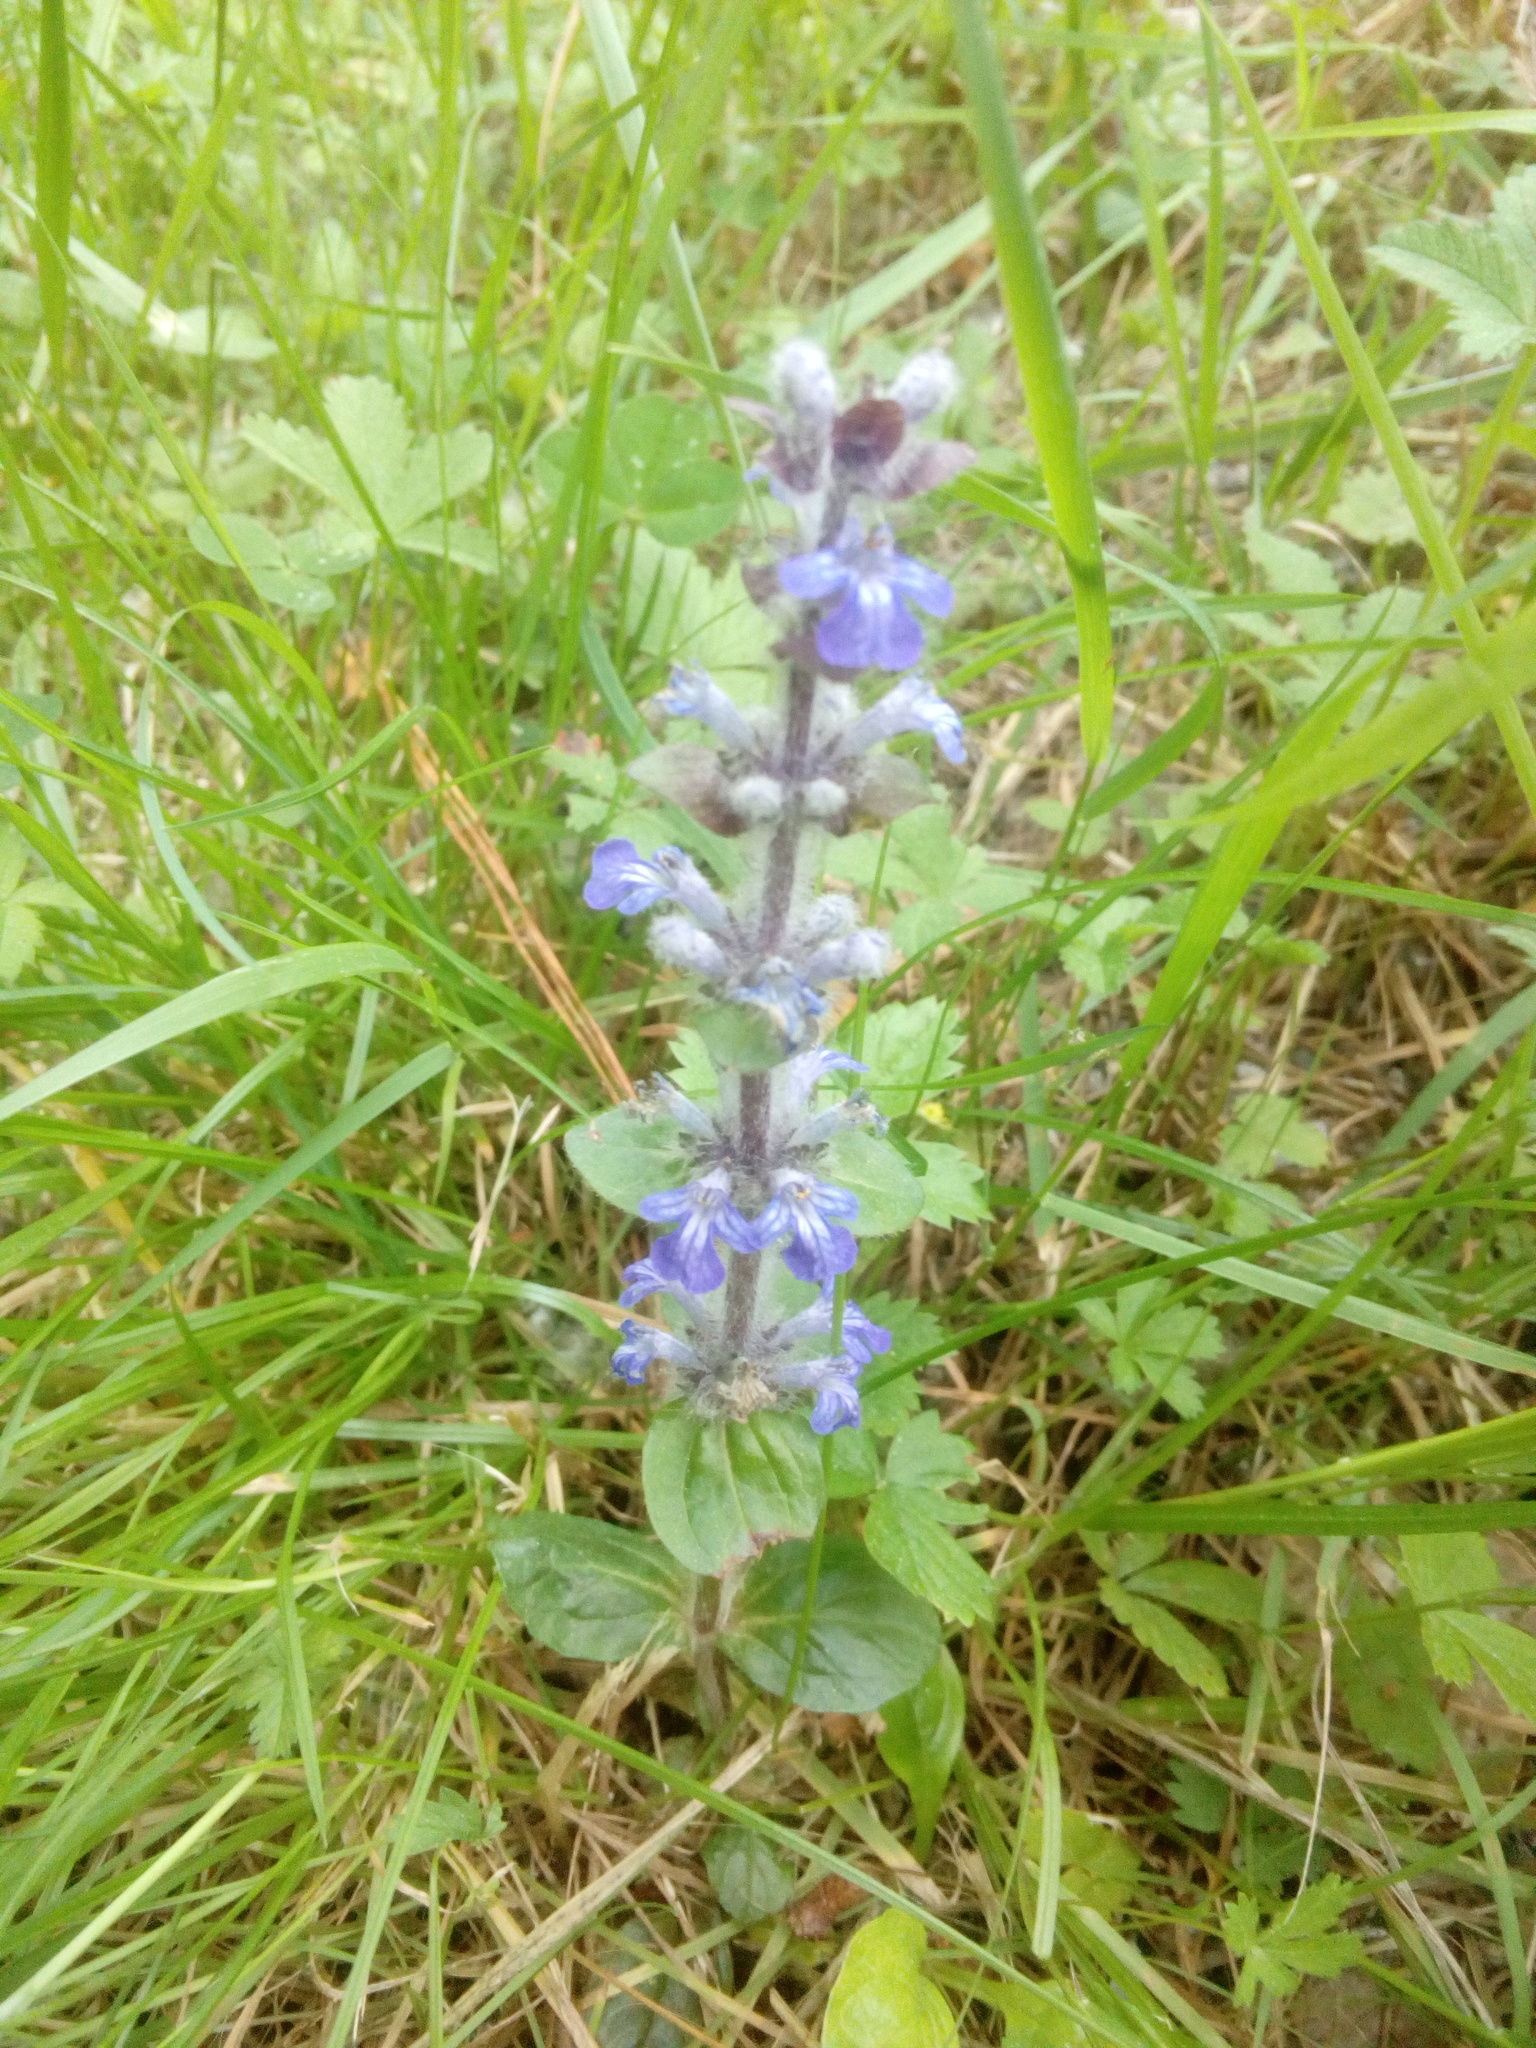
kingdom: Plantae
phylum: Tracheophyta
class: Magnoliopsida
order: Lamiales
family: Lamiaceae
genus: Ajuga
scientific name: Ajuga reptans
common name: Bugle
